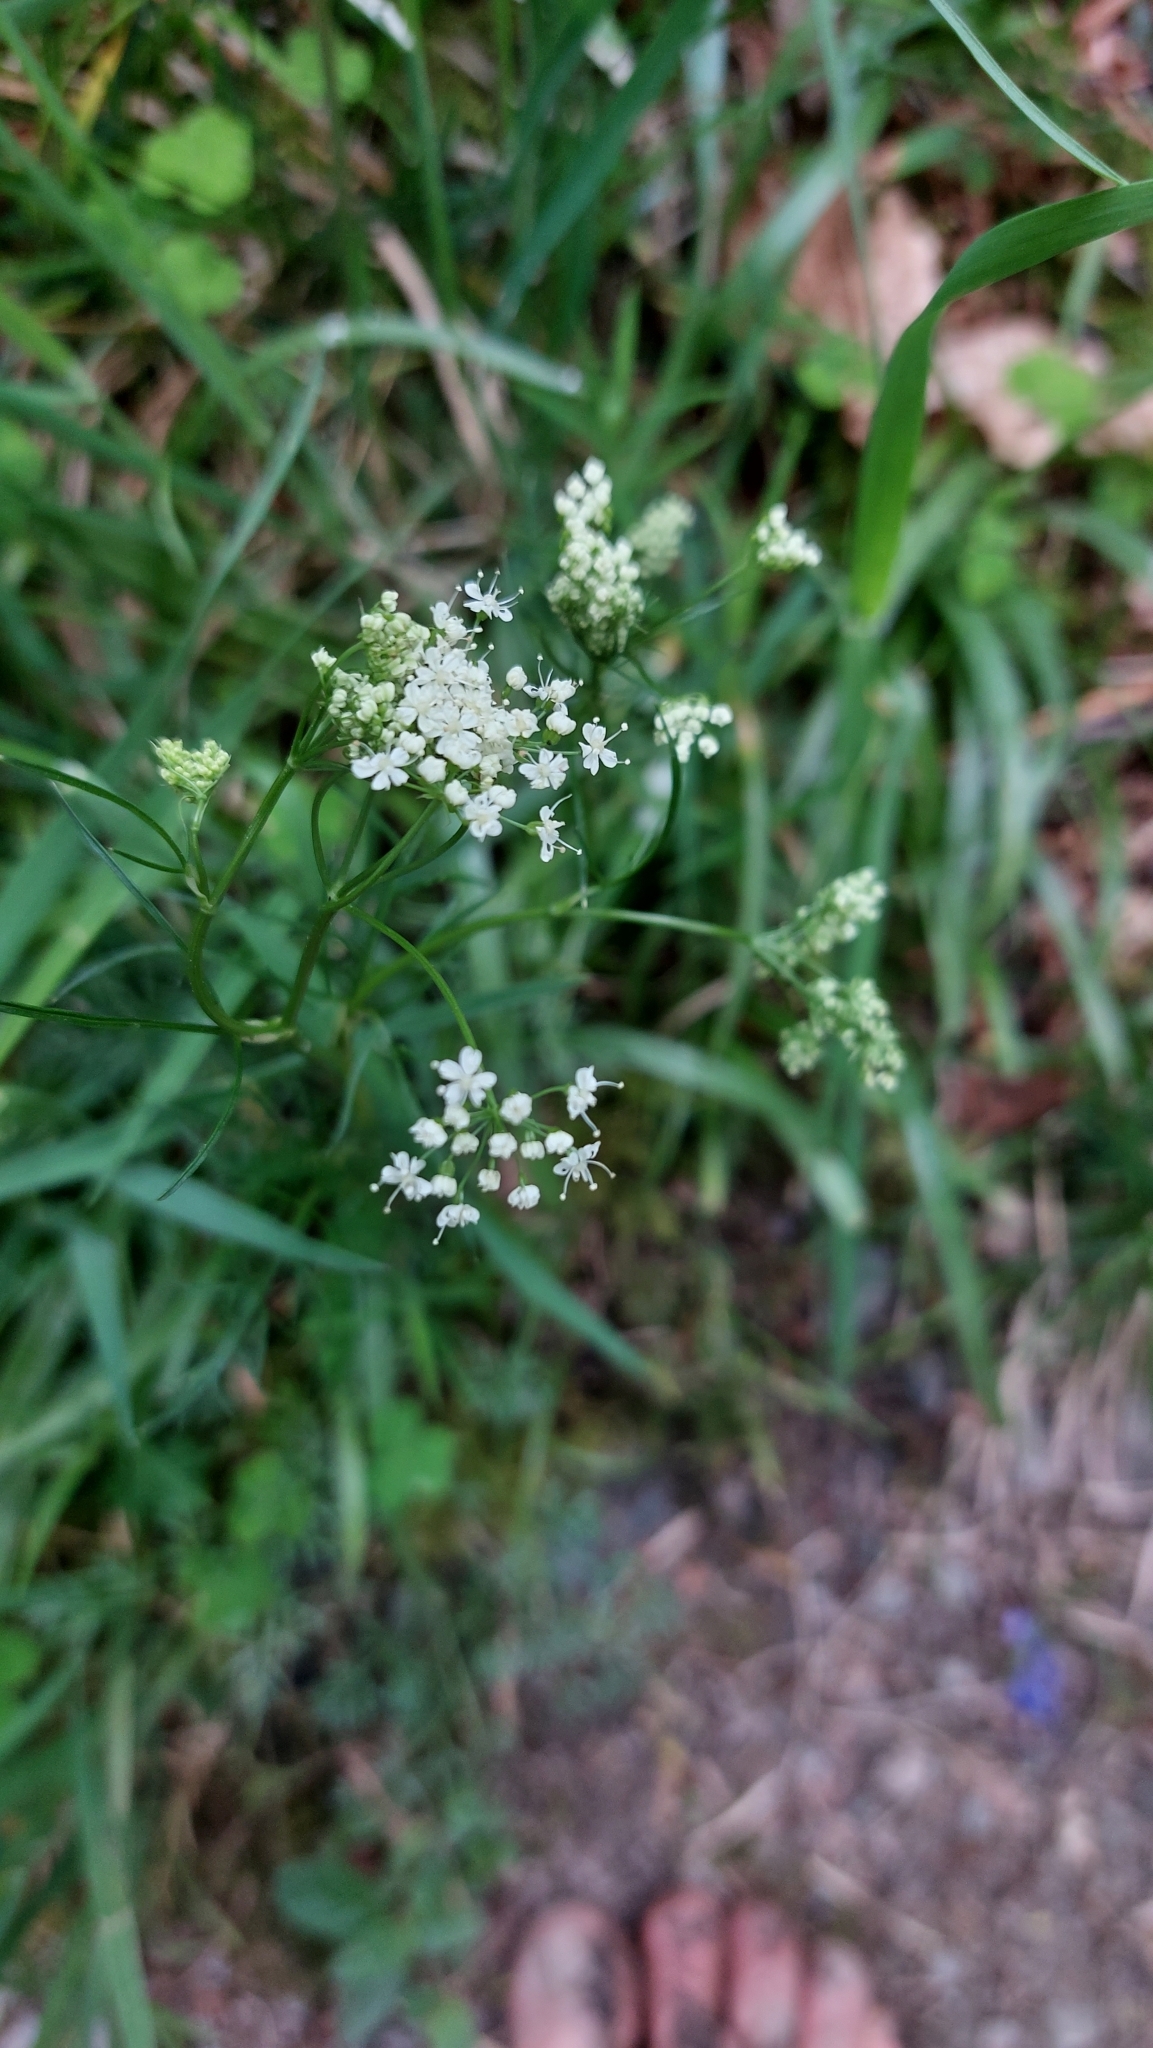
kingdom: Plantae
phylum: Tracheophyta
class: Magnoliopsida
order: Apiales
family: Apiaceae
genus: Conopodium
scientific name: Conopodium majus
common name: Pignut
